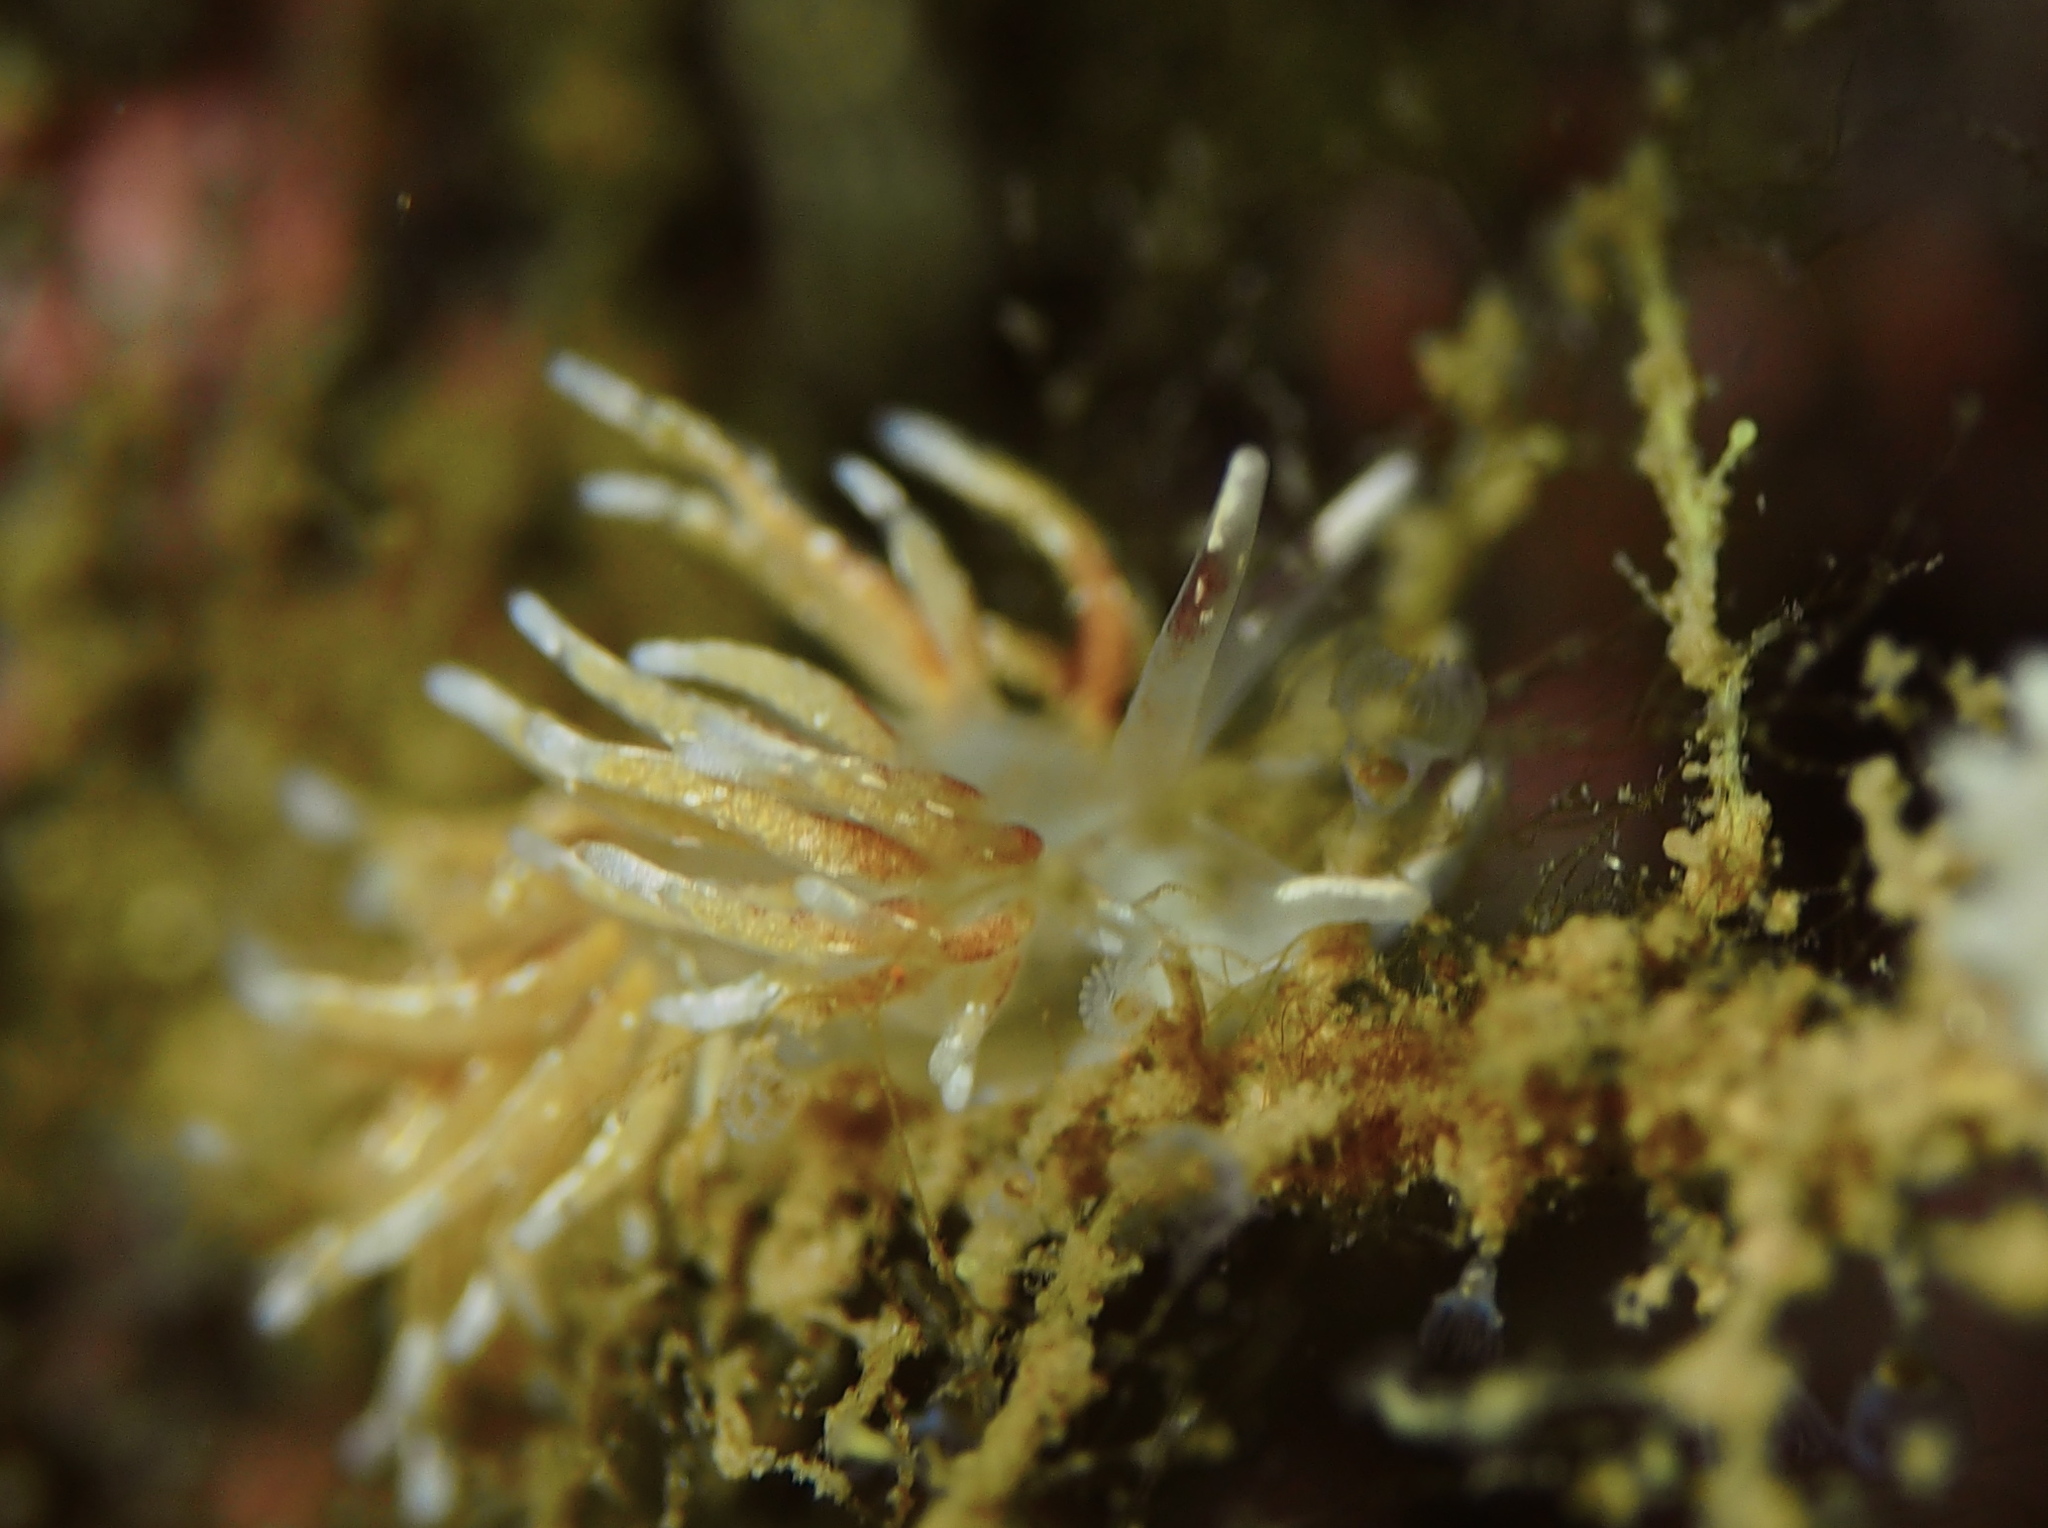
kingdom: Animalia
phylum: Mollusca
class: Gastropoda
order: Nudibranchia
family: Trinchesiidae
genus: Rubramoena
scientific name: Rubramoena rubescens
